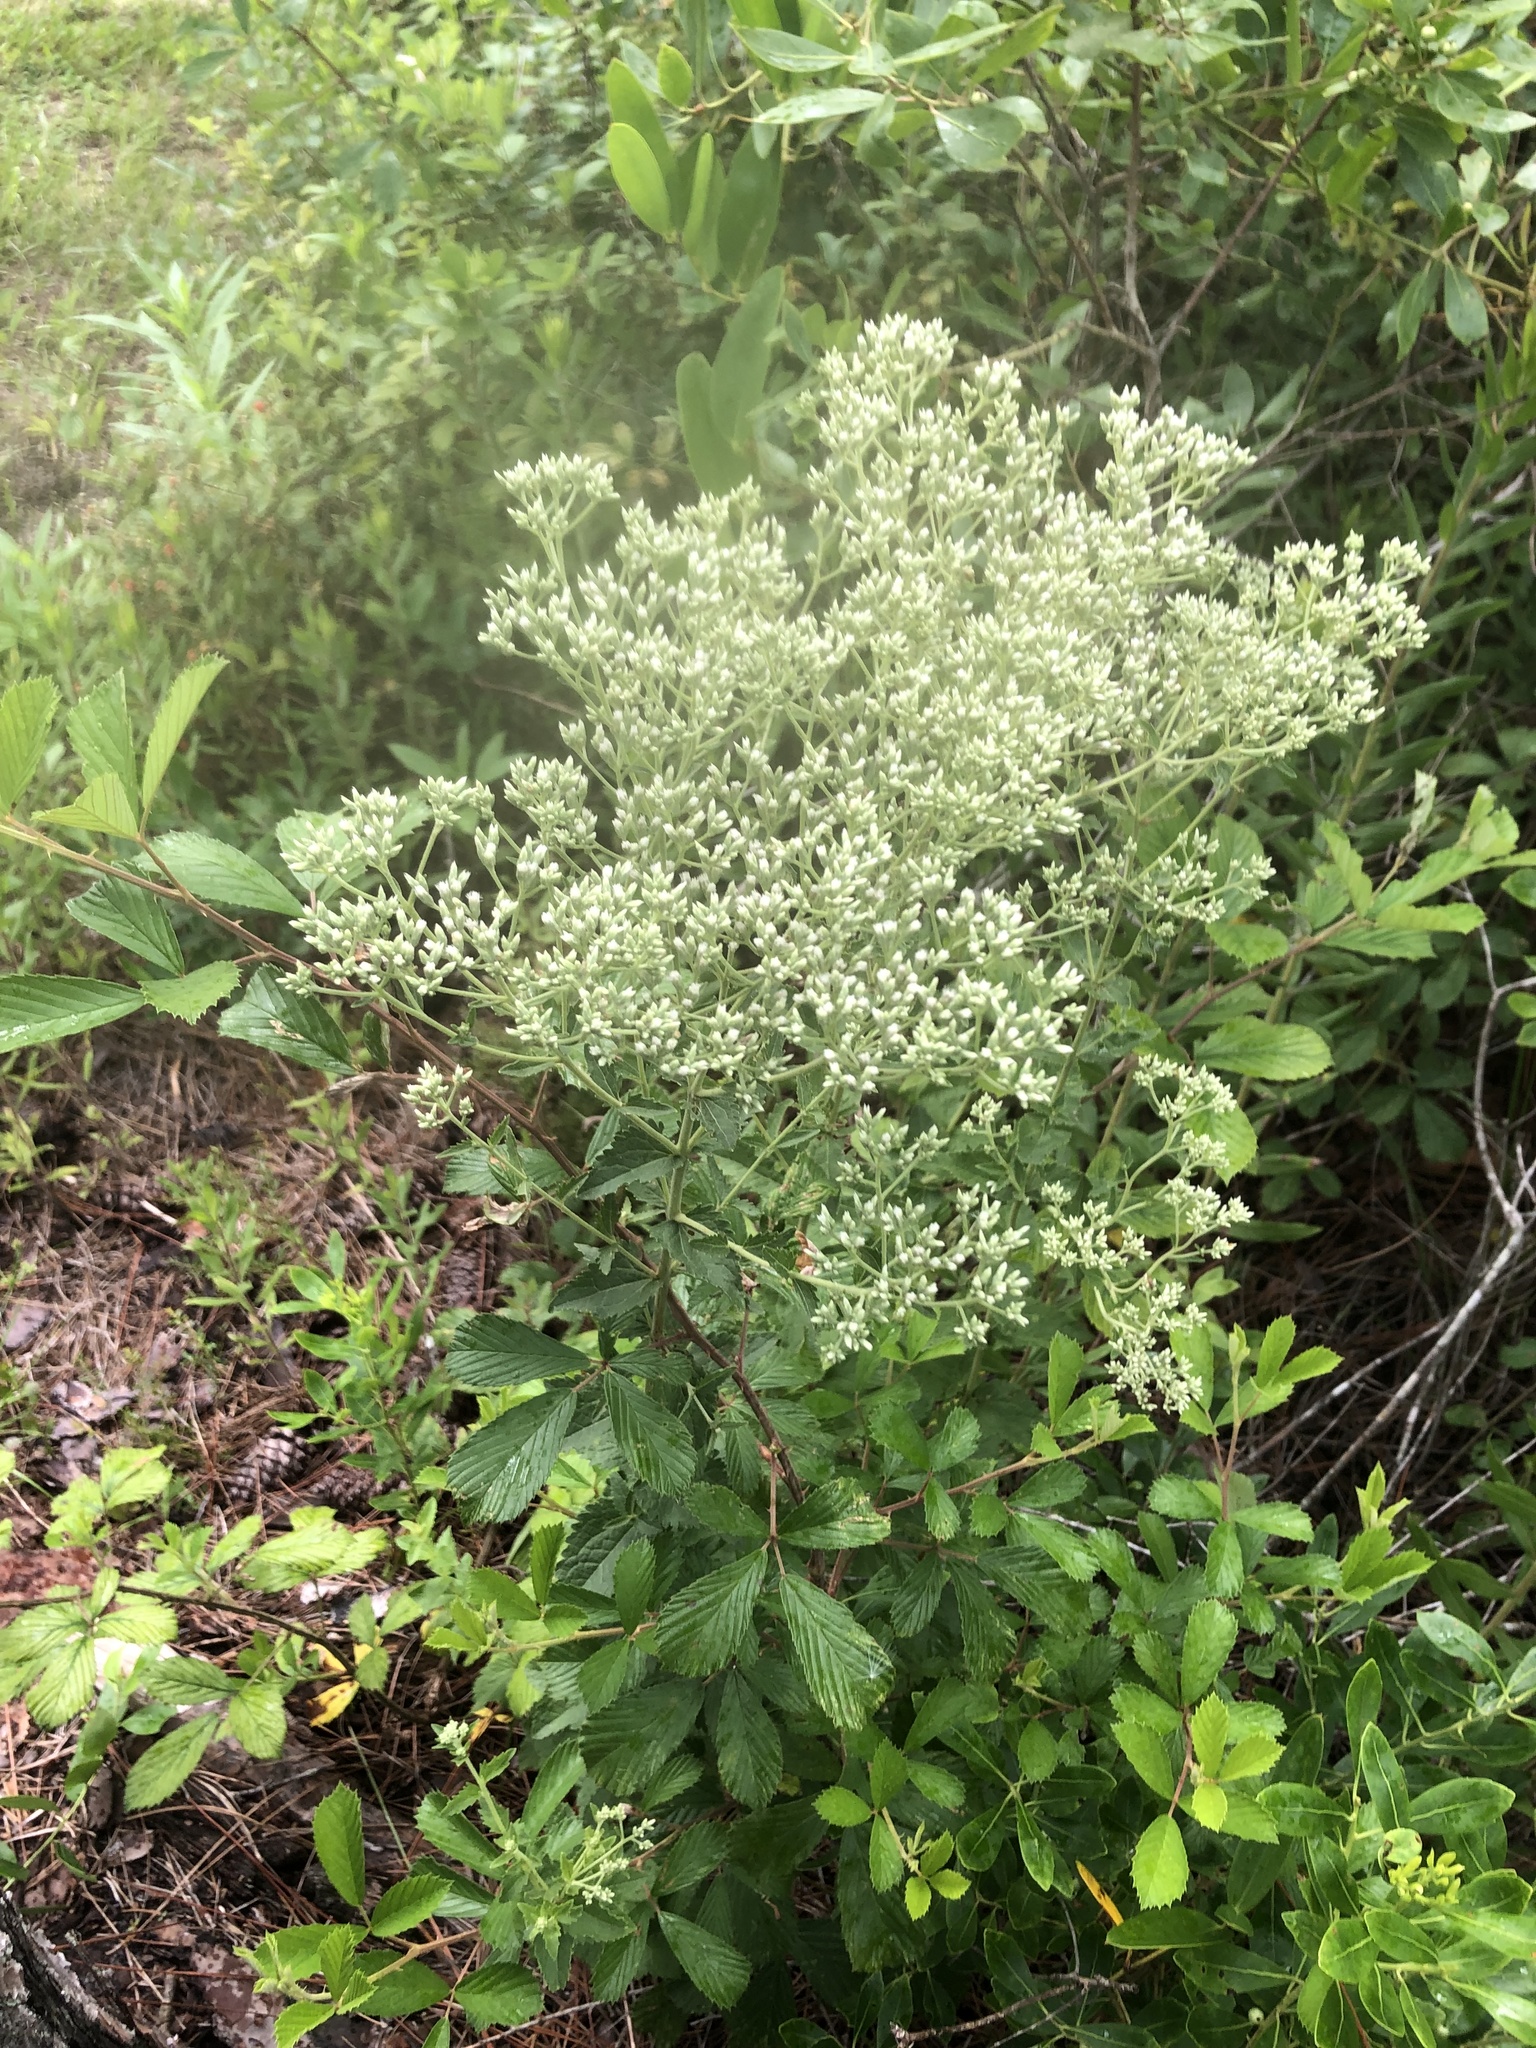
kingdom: Plantae
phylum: Tracheophyta
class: Magnoliopsida
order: Asterales
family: Asteraceae
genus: Eupatorium
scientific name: Eupatorium rotundifolium
